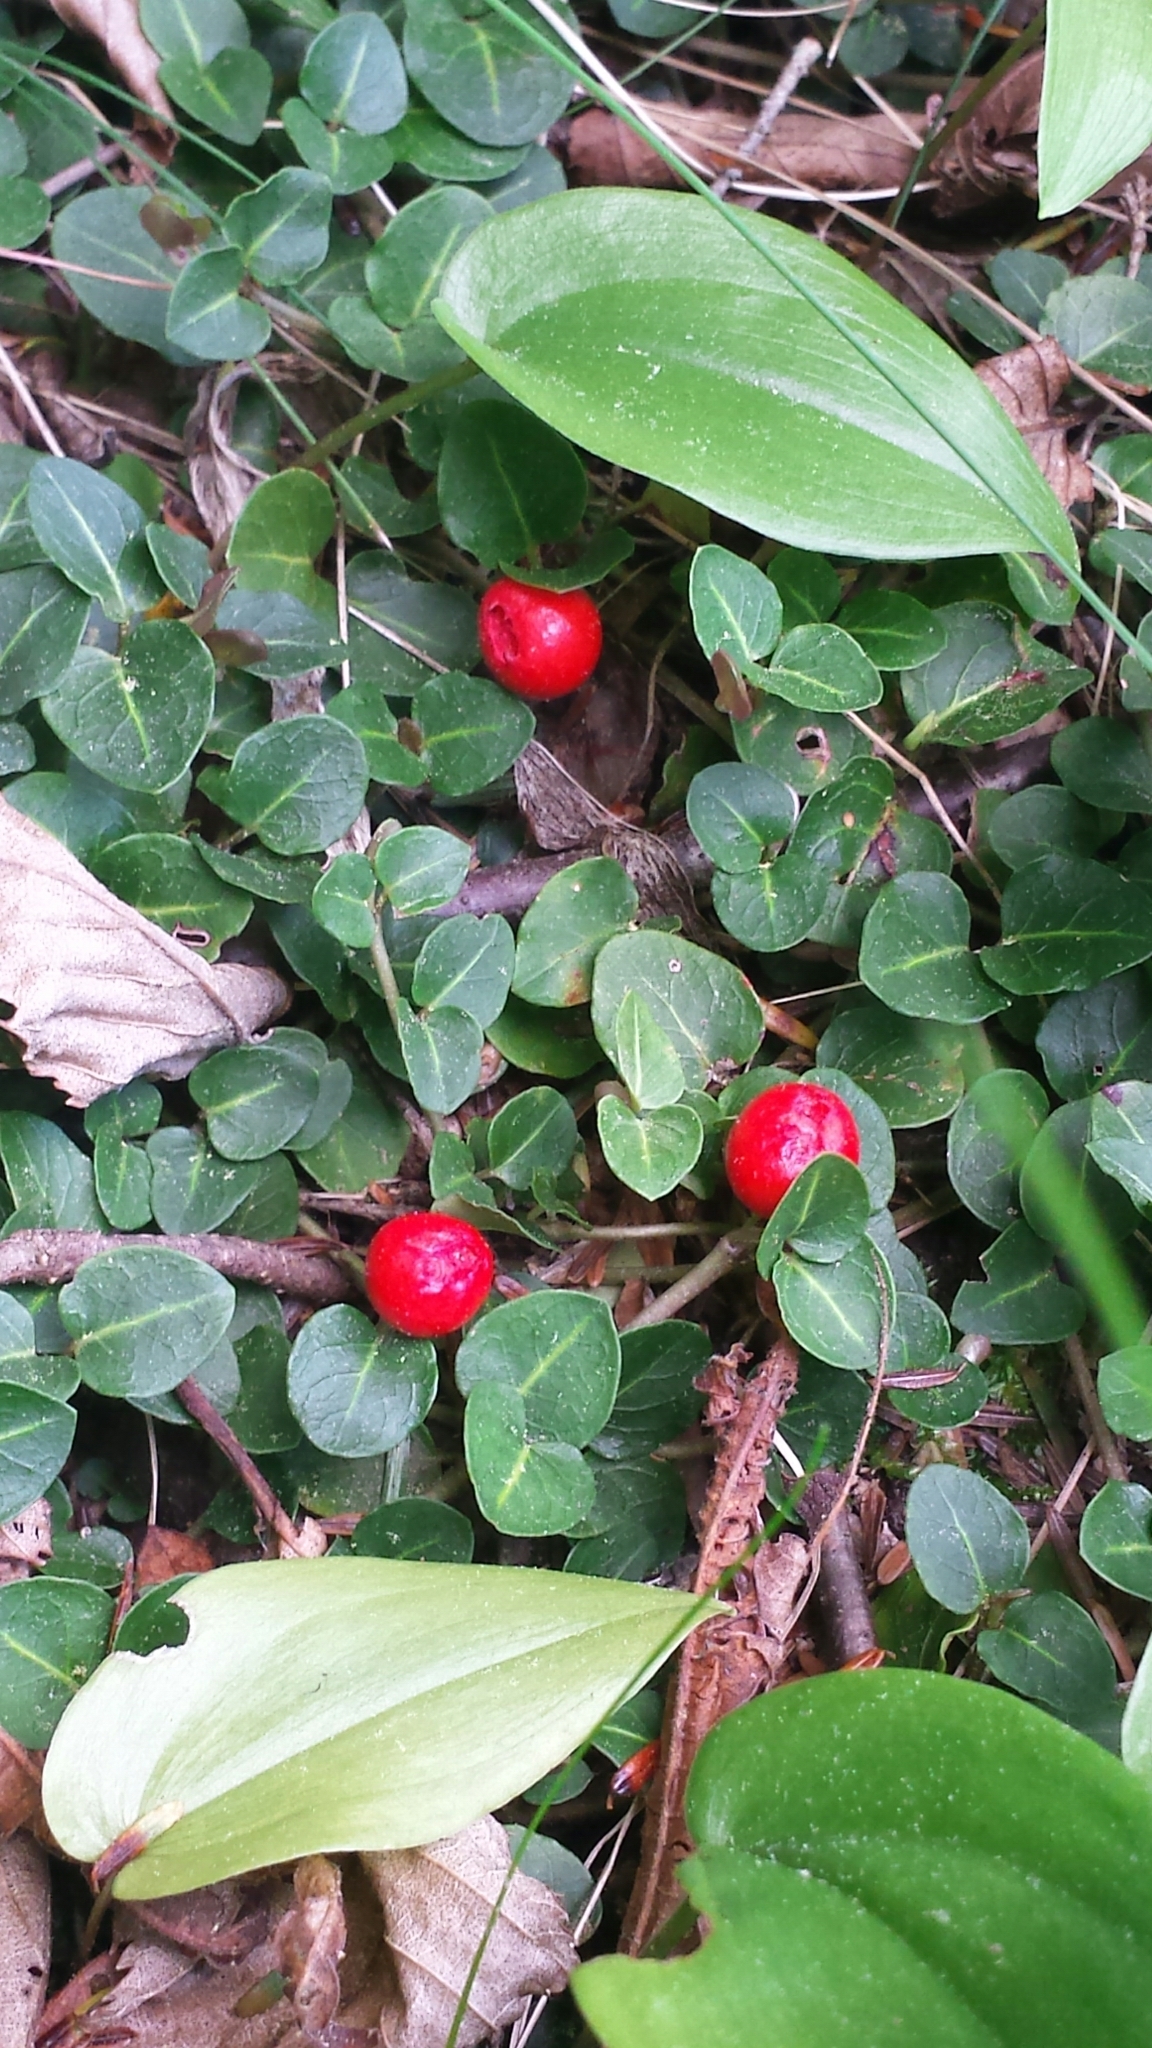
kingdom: Plantae
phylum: Tracheophyta
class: Magnoliopsida
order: Gentianales
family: Rubiaceae
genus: Mitchella
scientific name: Mitchella repens
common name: Partridge-berry
